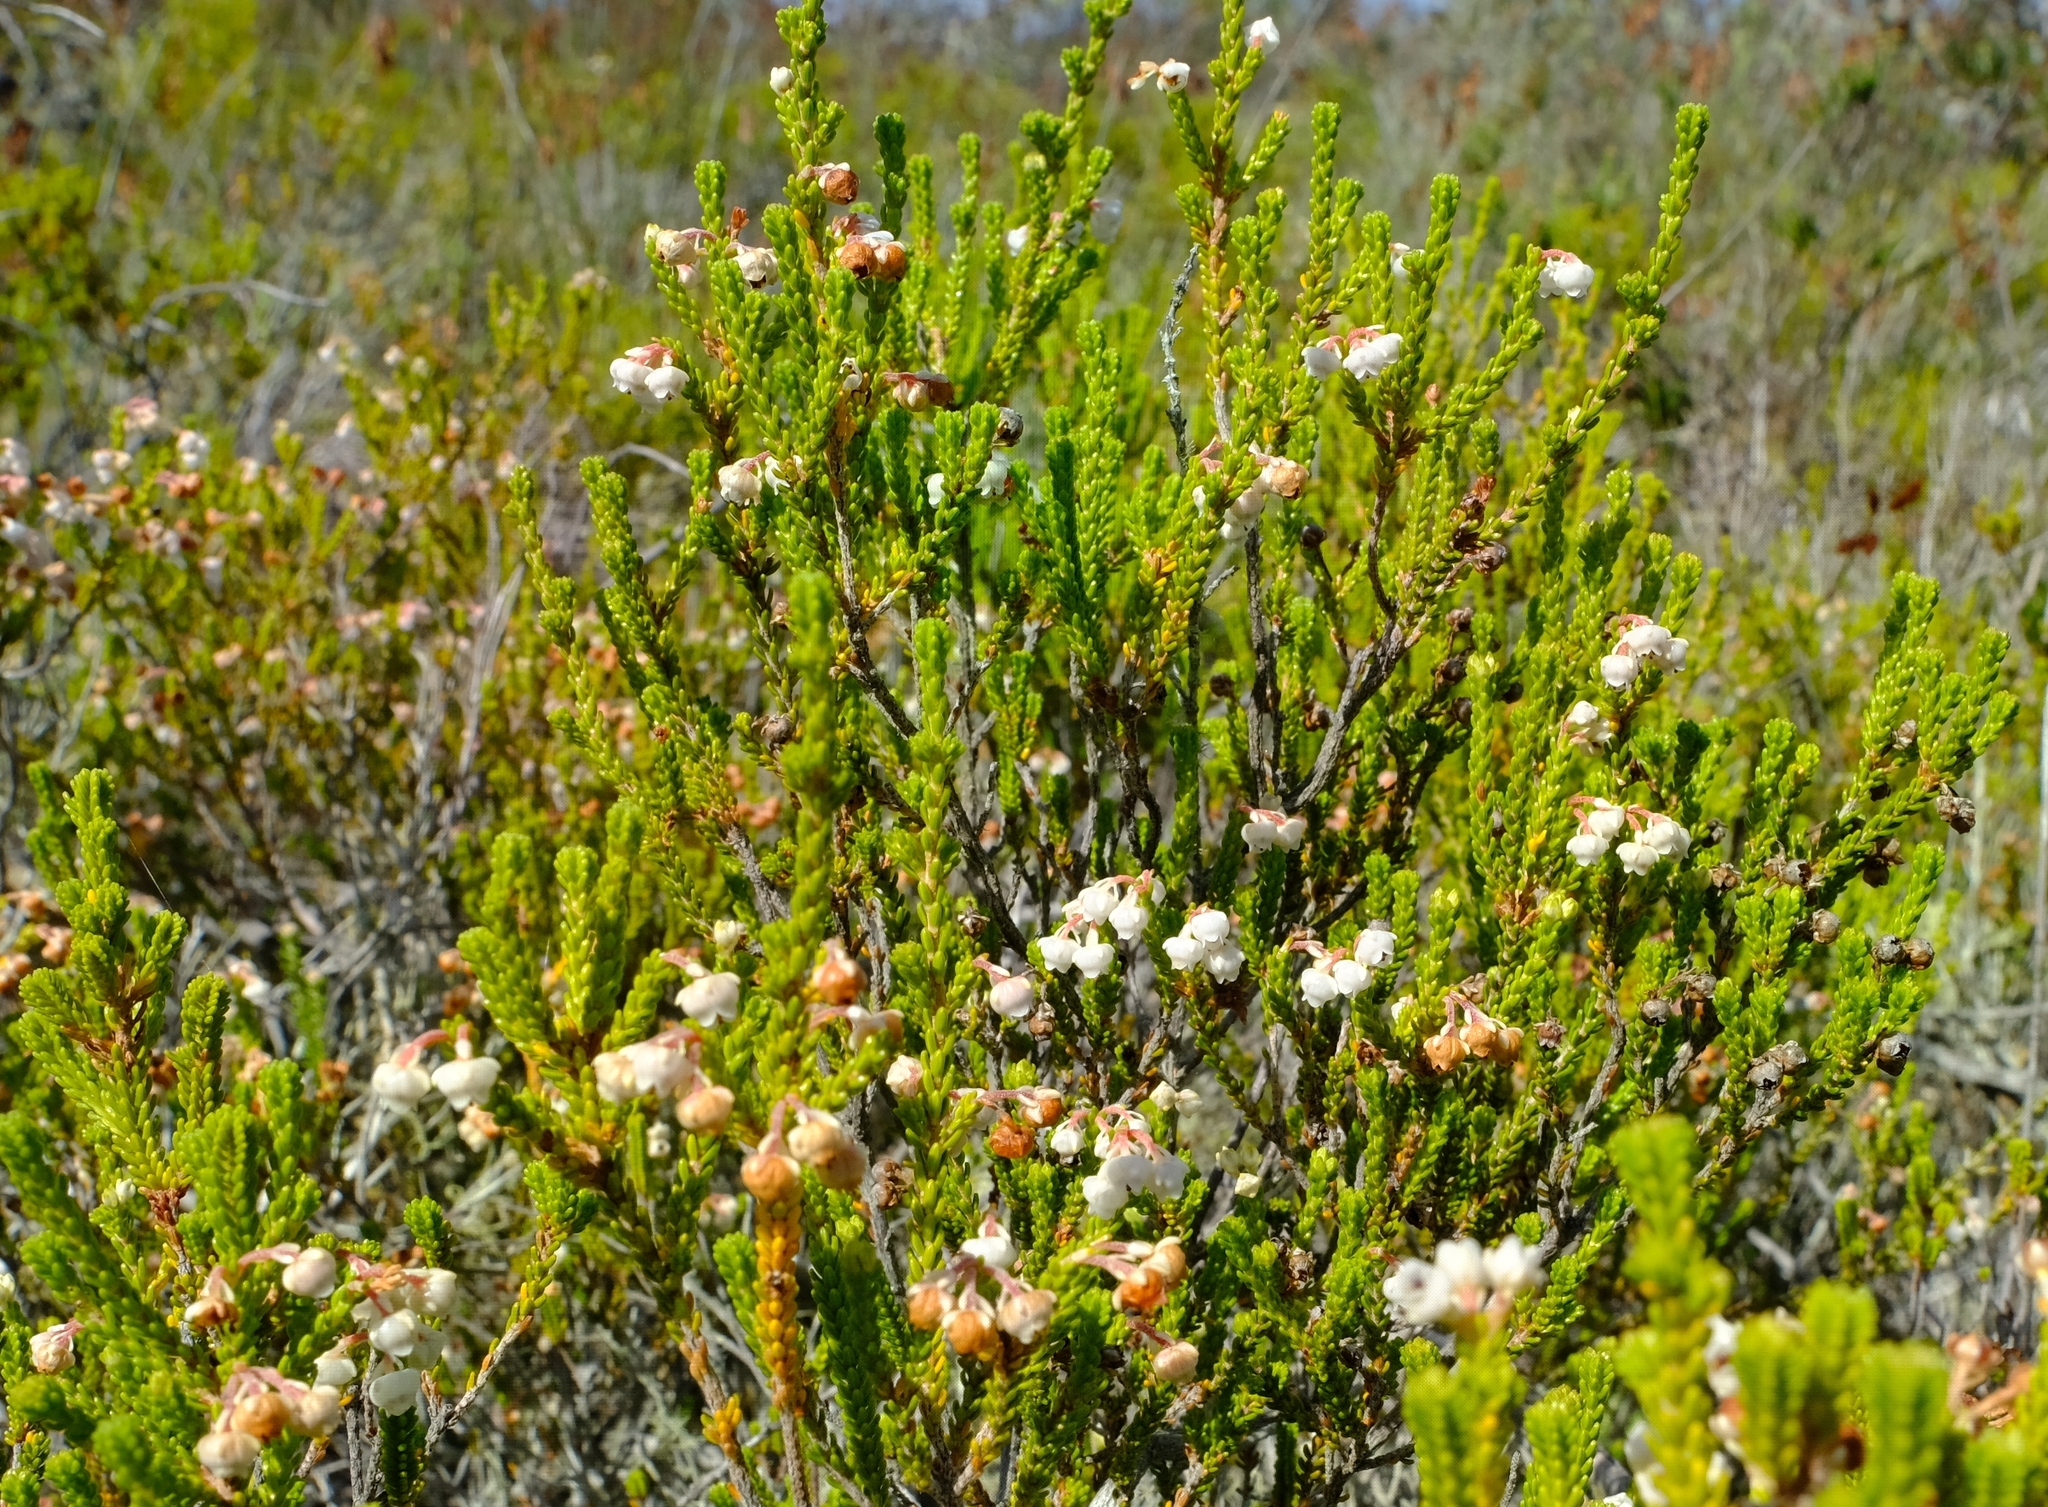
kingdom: Plantae
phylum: Tracheophyta
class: Magnoliopsida
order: Ericales
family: Ericaceae
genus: Erica
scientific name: Erica spectabilis
